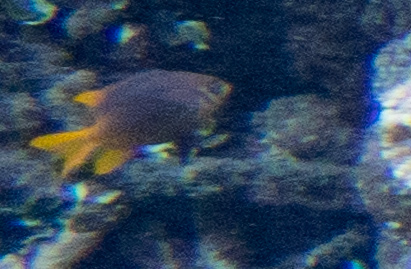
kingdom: Animalia
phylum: Chordata
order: Perciformes
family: Pomacentridae
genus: Neoglyphidodon
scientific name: Neoglyphidodon nigroris
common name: Behn's damsel
